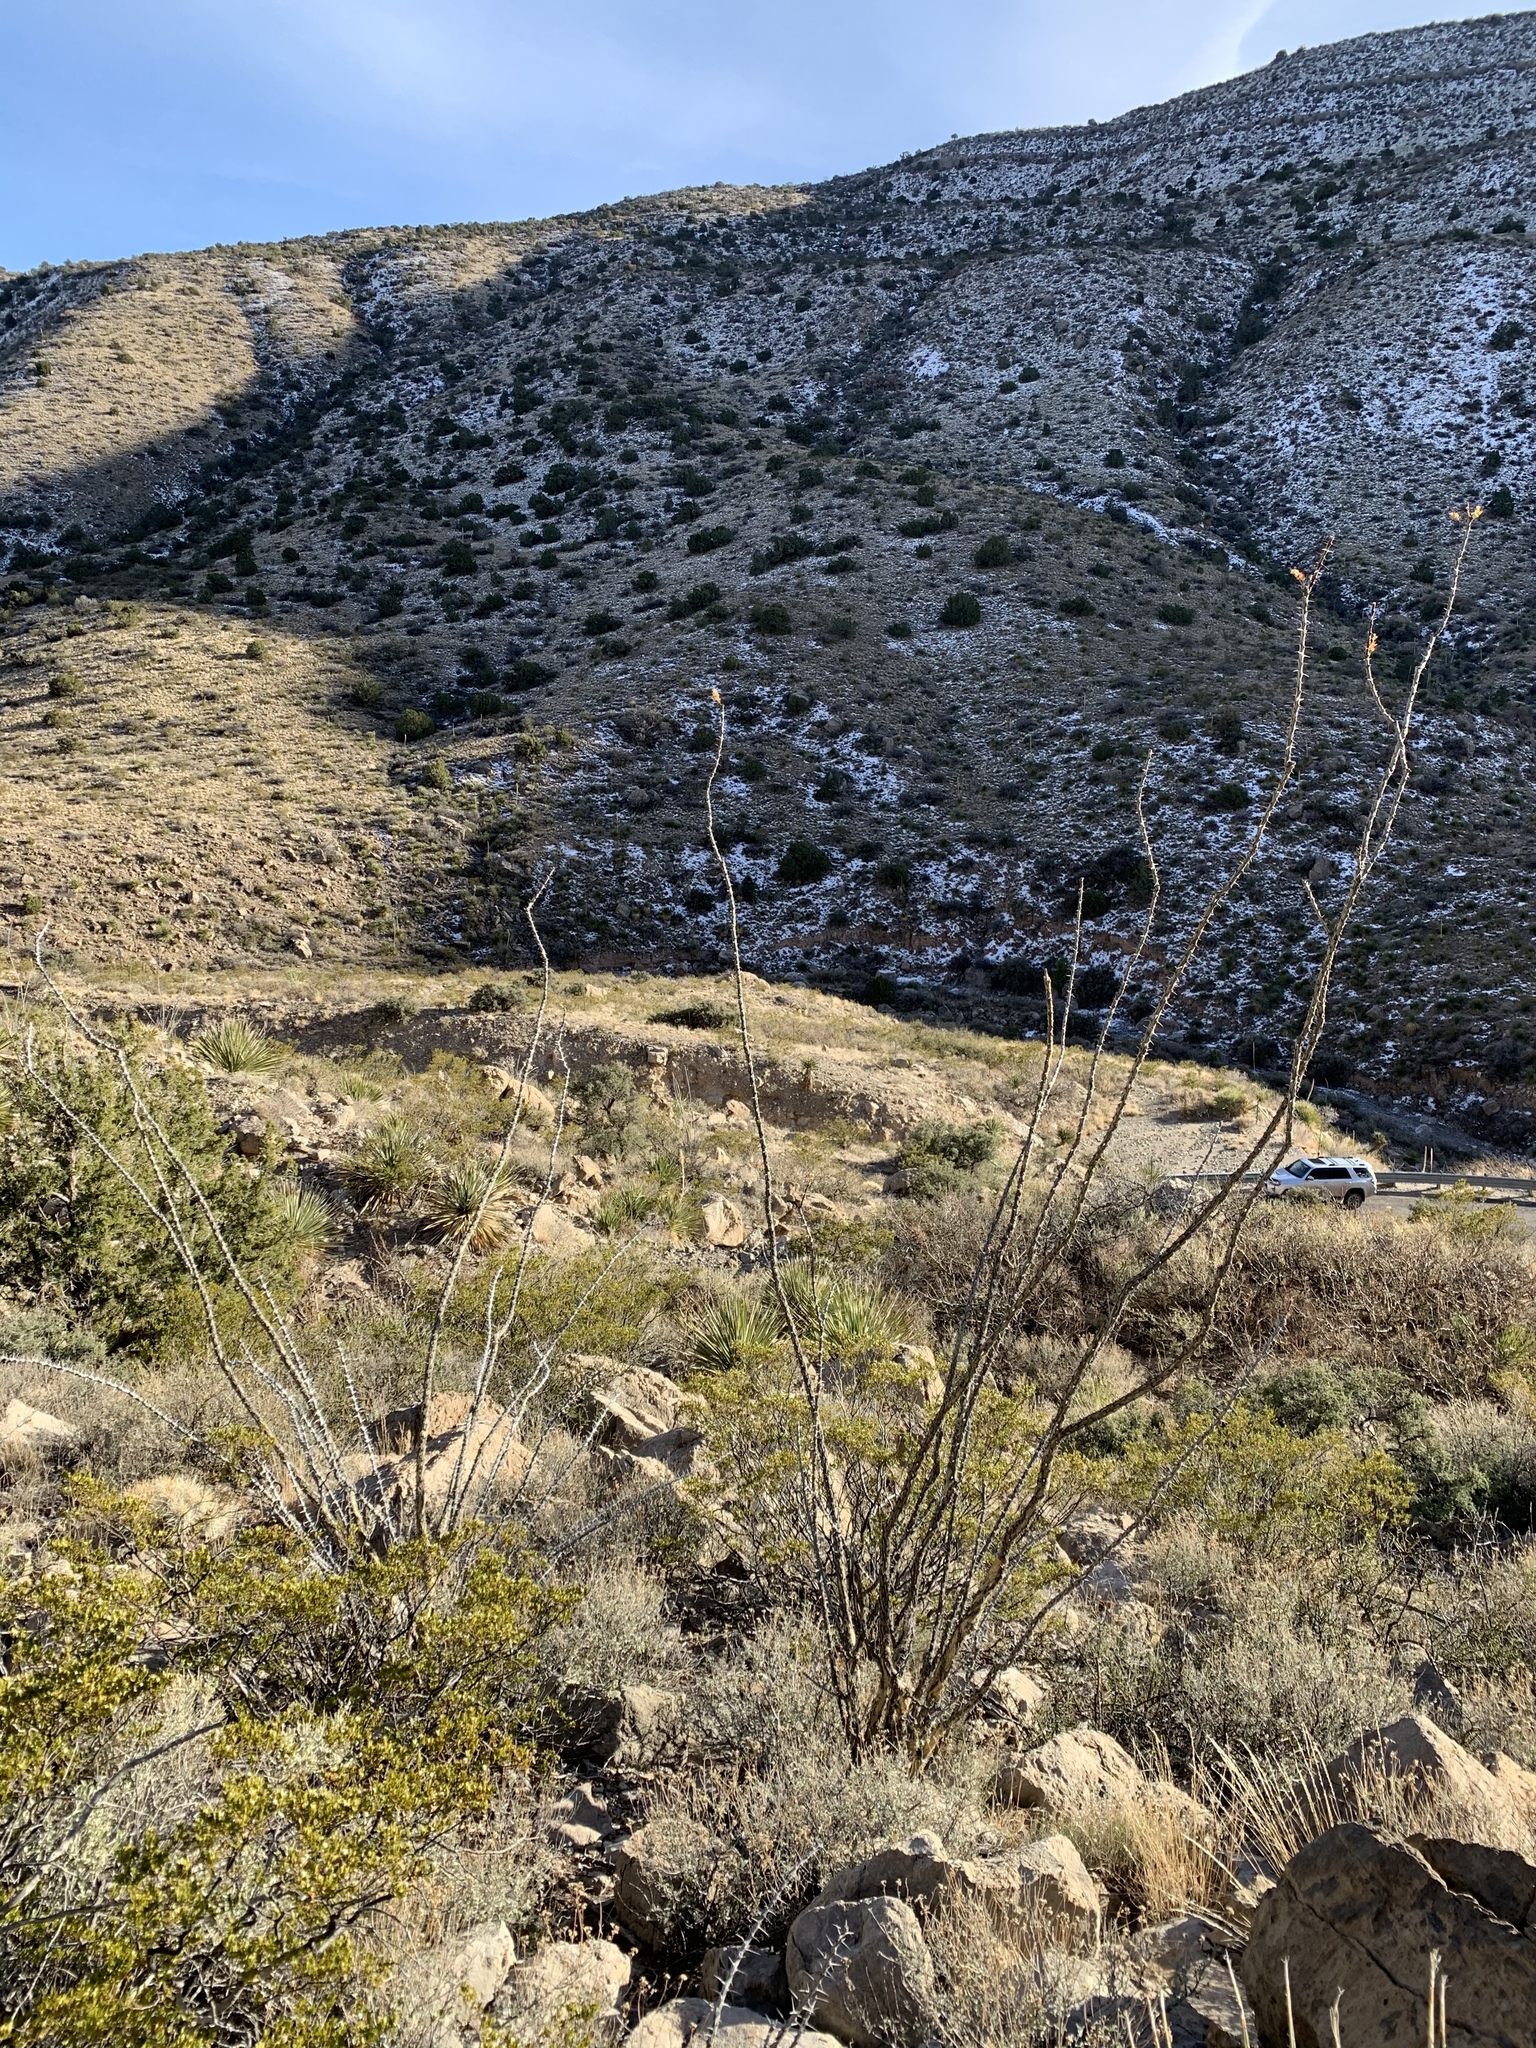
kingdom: Plantae
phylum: Tracheophyta
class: Magnoliopsida
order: Ericales
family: Fouquieriaceae
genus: Fouquieria
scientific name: Fouquieria splendens
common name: Vine-cactus
